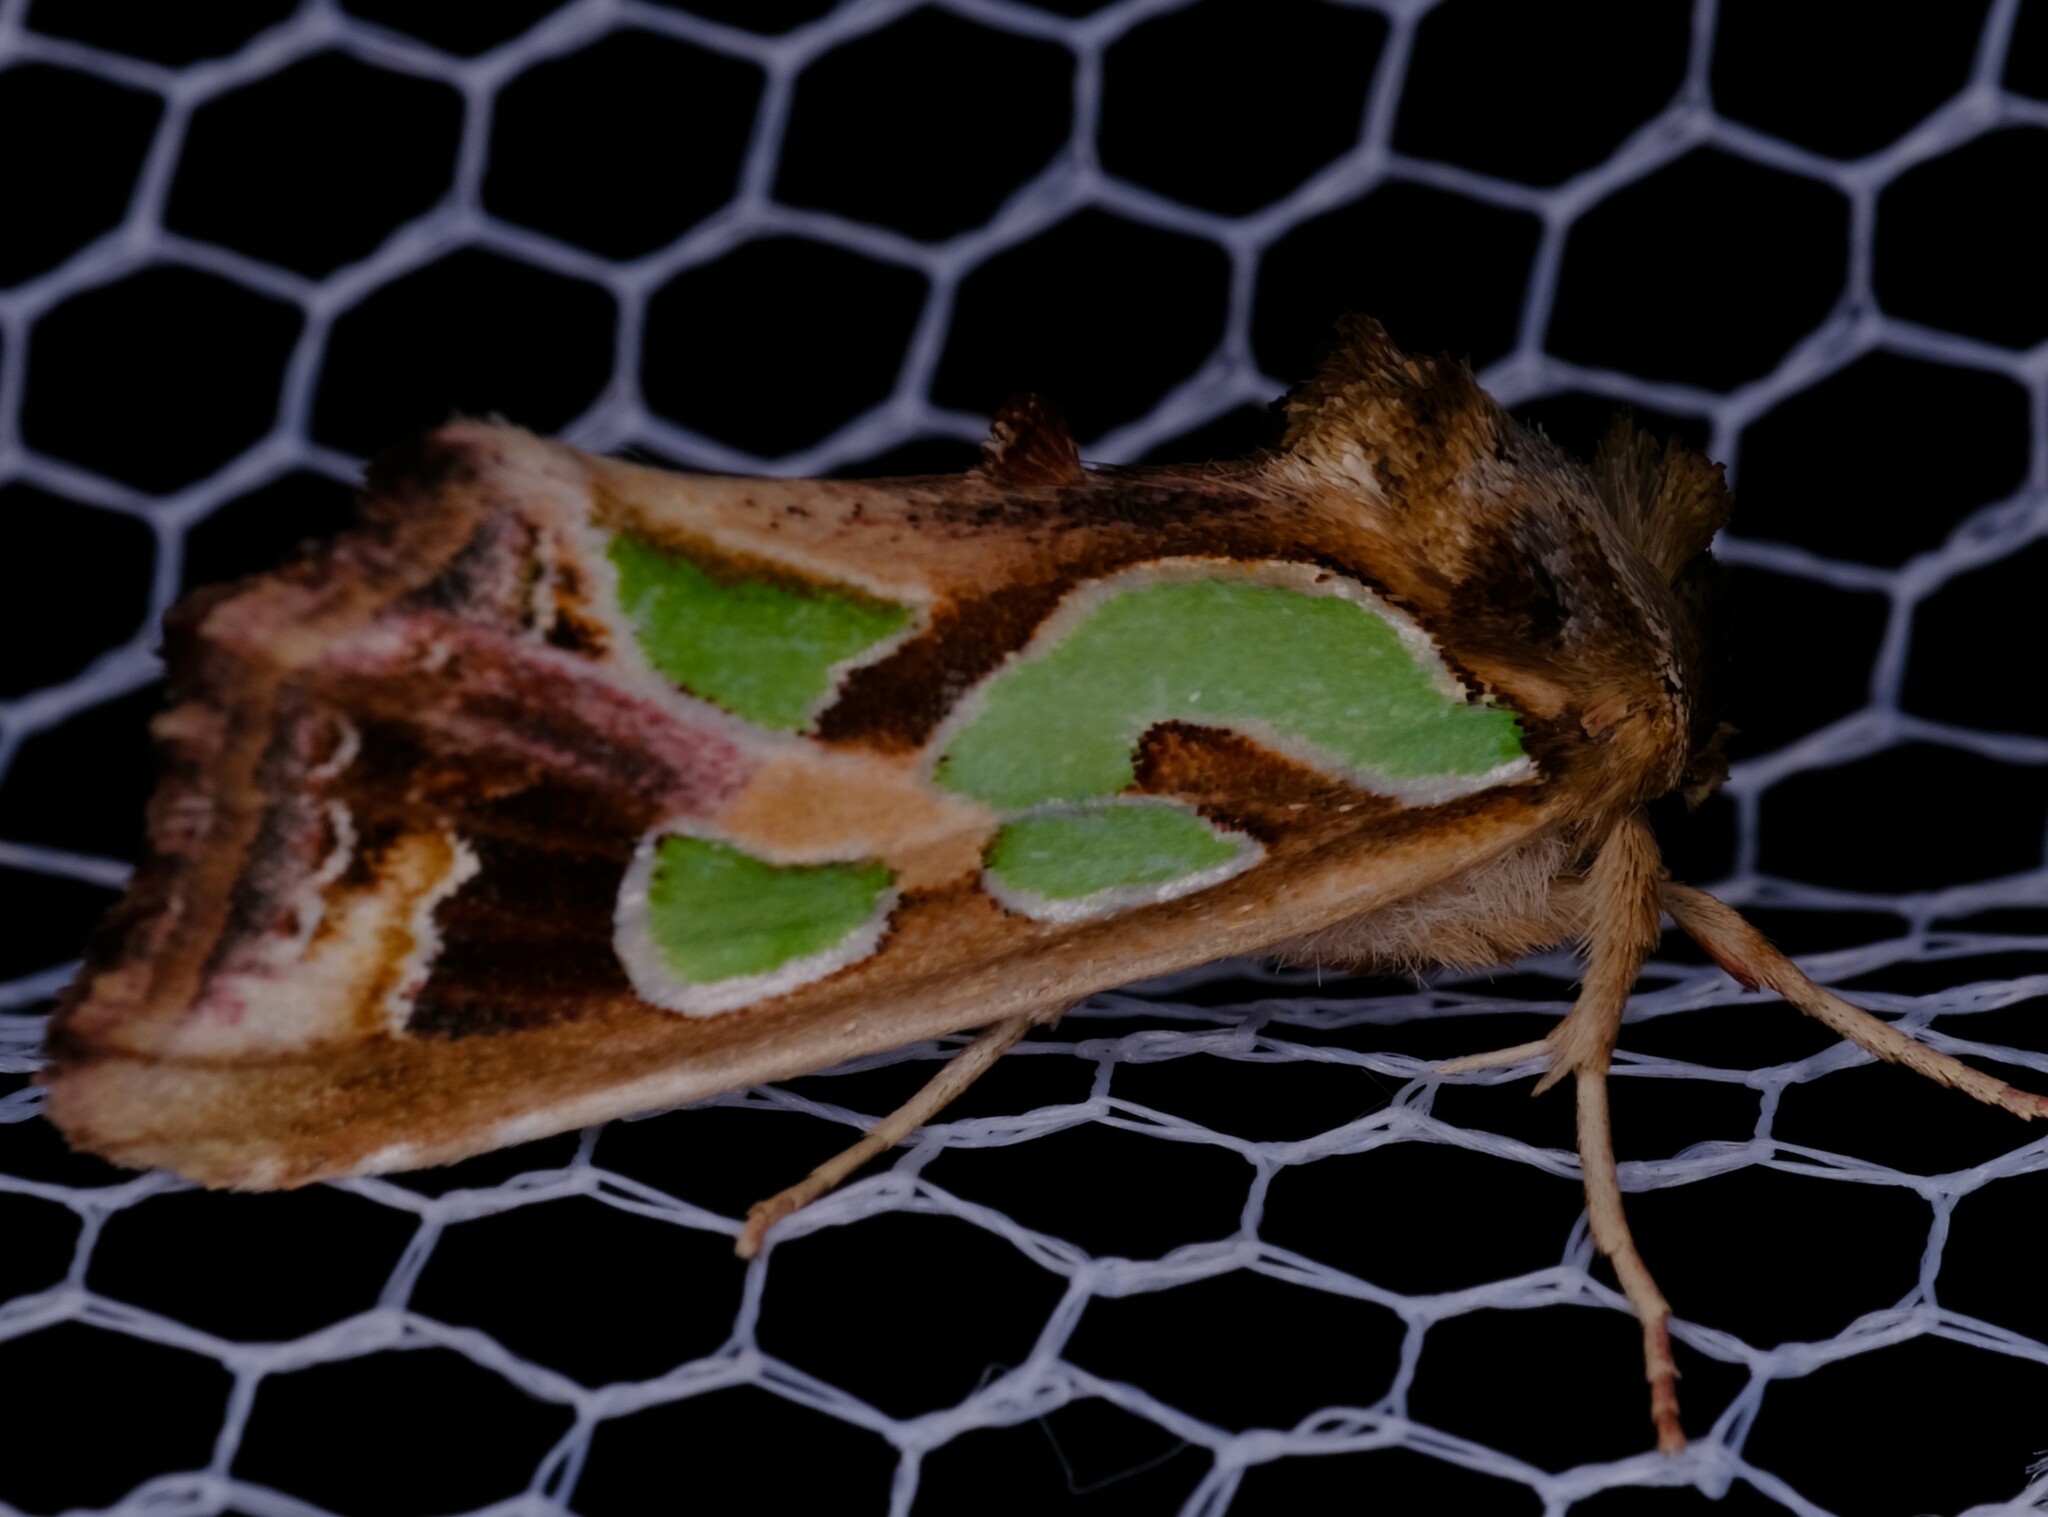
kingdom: Animalia
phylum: Arthropoda
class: Insecta
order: Lepidoptera
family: Noctuidae
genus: Cosmodes
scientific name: Cosmodes elegans
